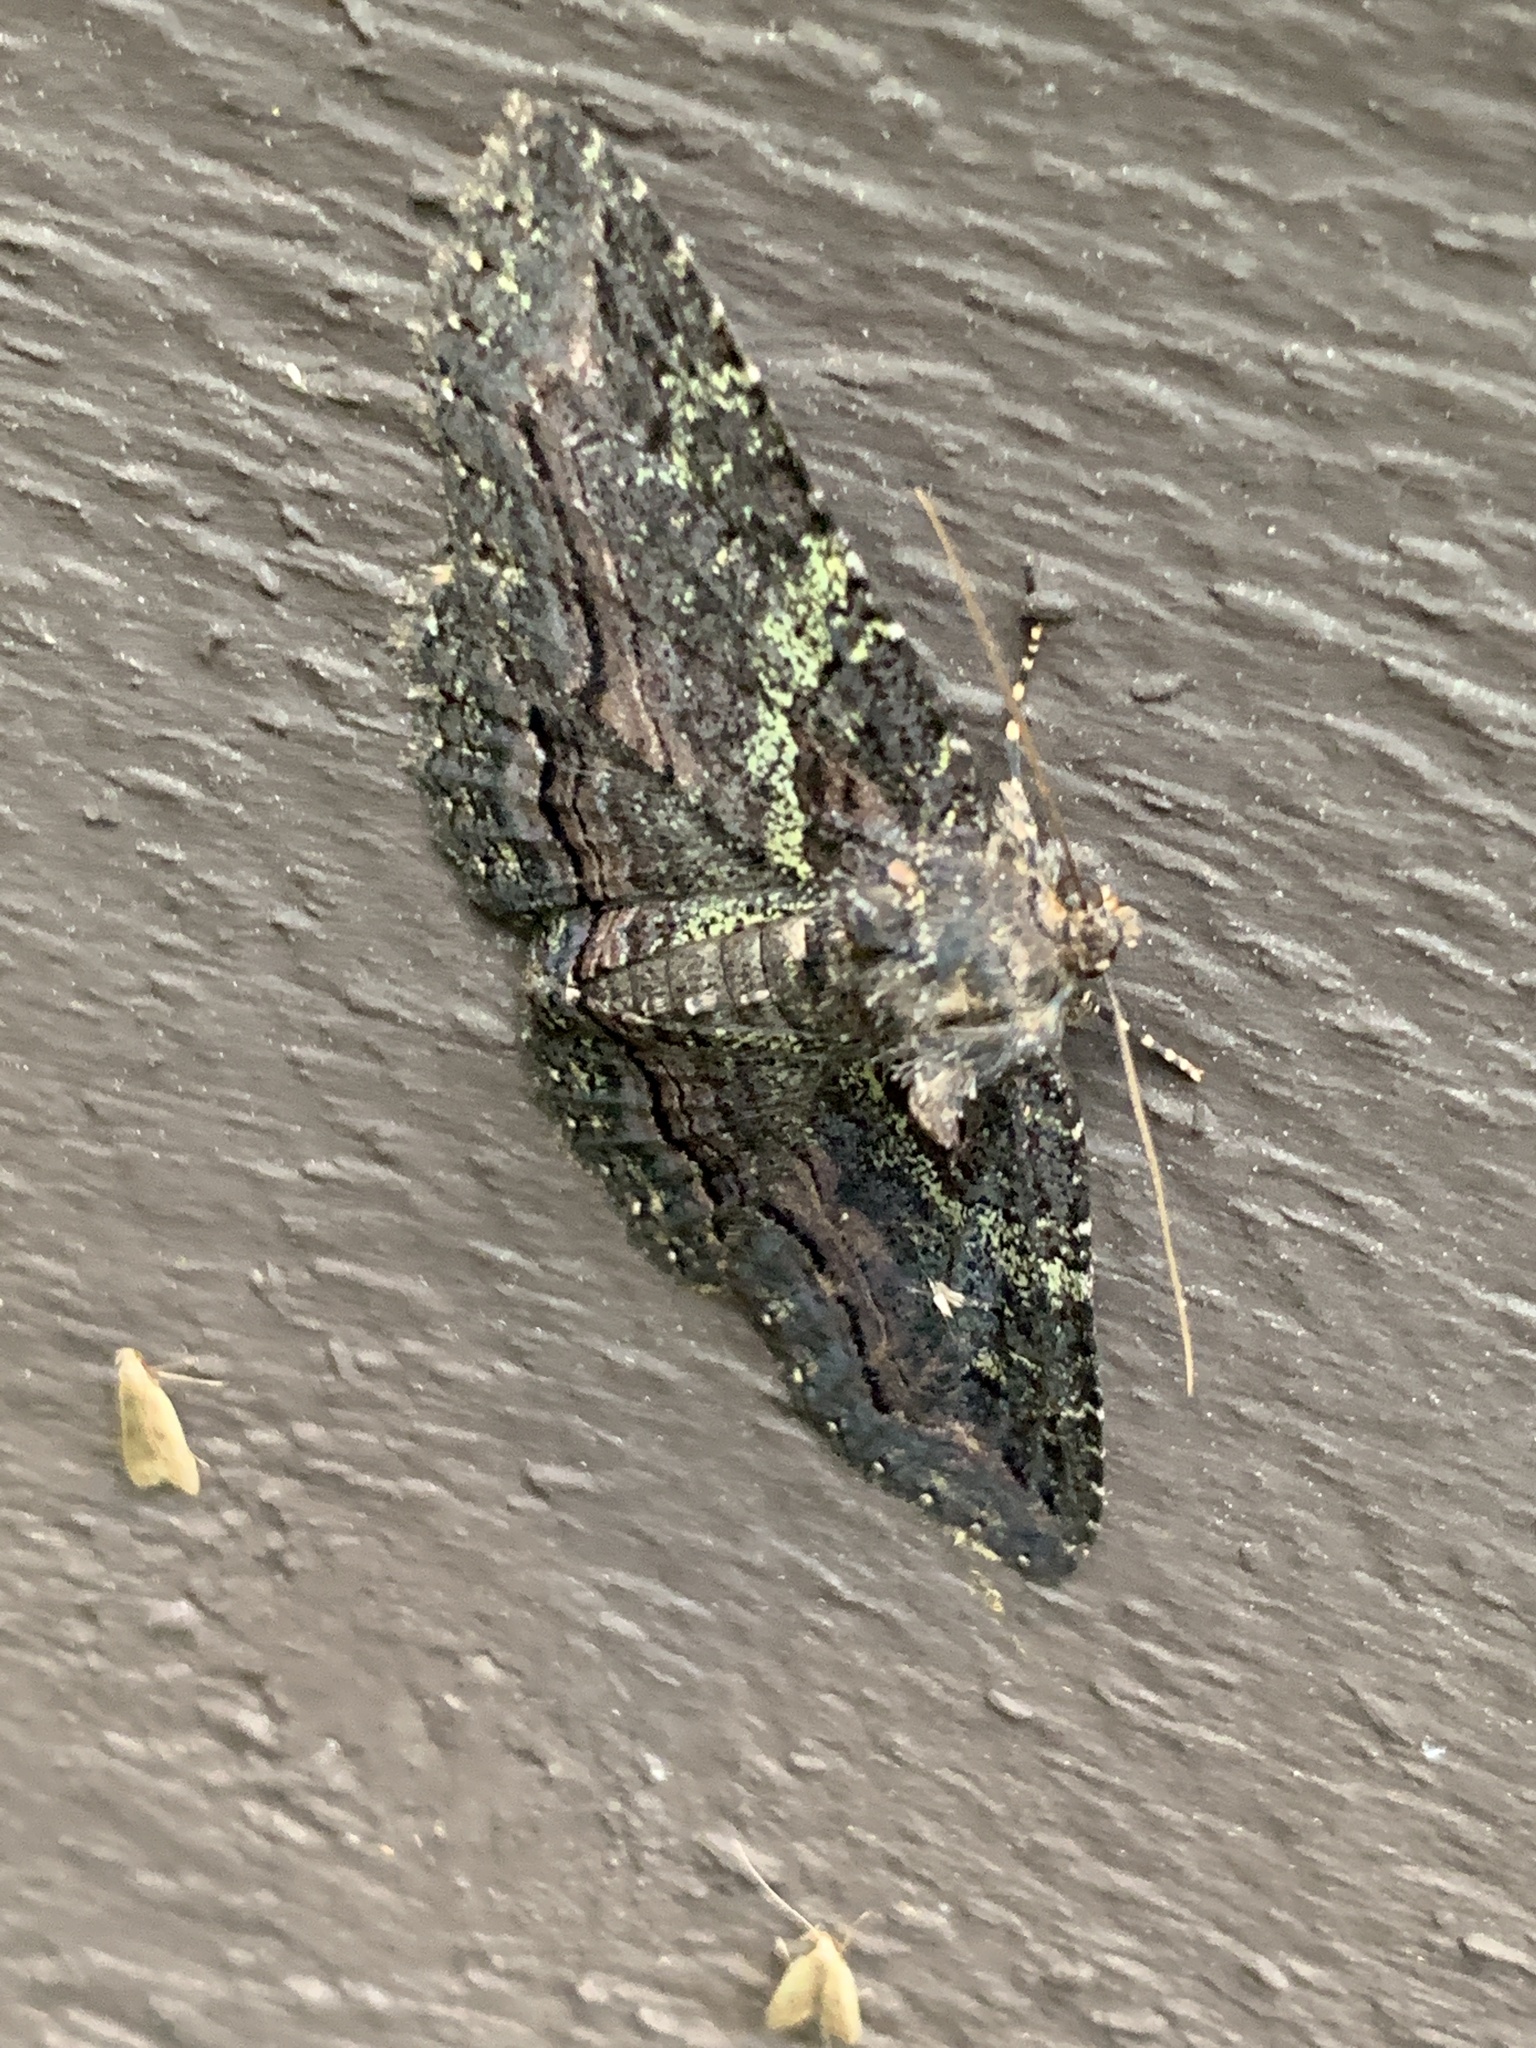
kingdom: Animalia
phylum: Arthropoda
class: Insecta
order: Lepidoptera
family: Erebidae
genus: Zale
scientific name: Zale aeruginosa
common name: Green-dusted zale moth
